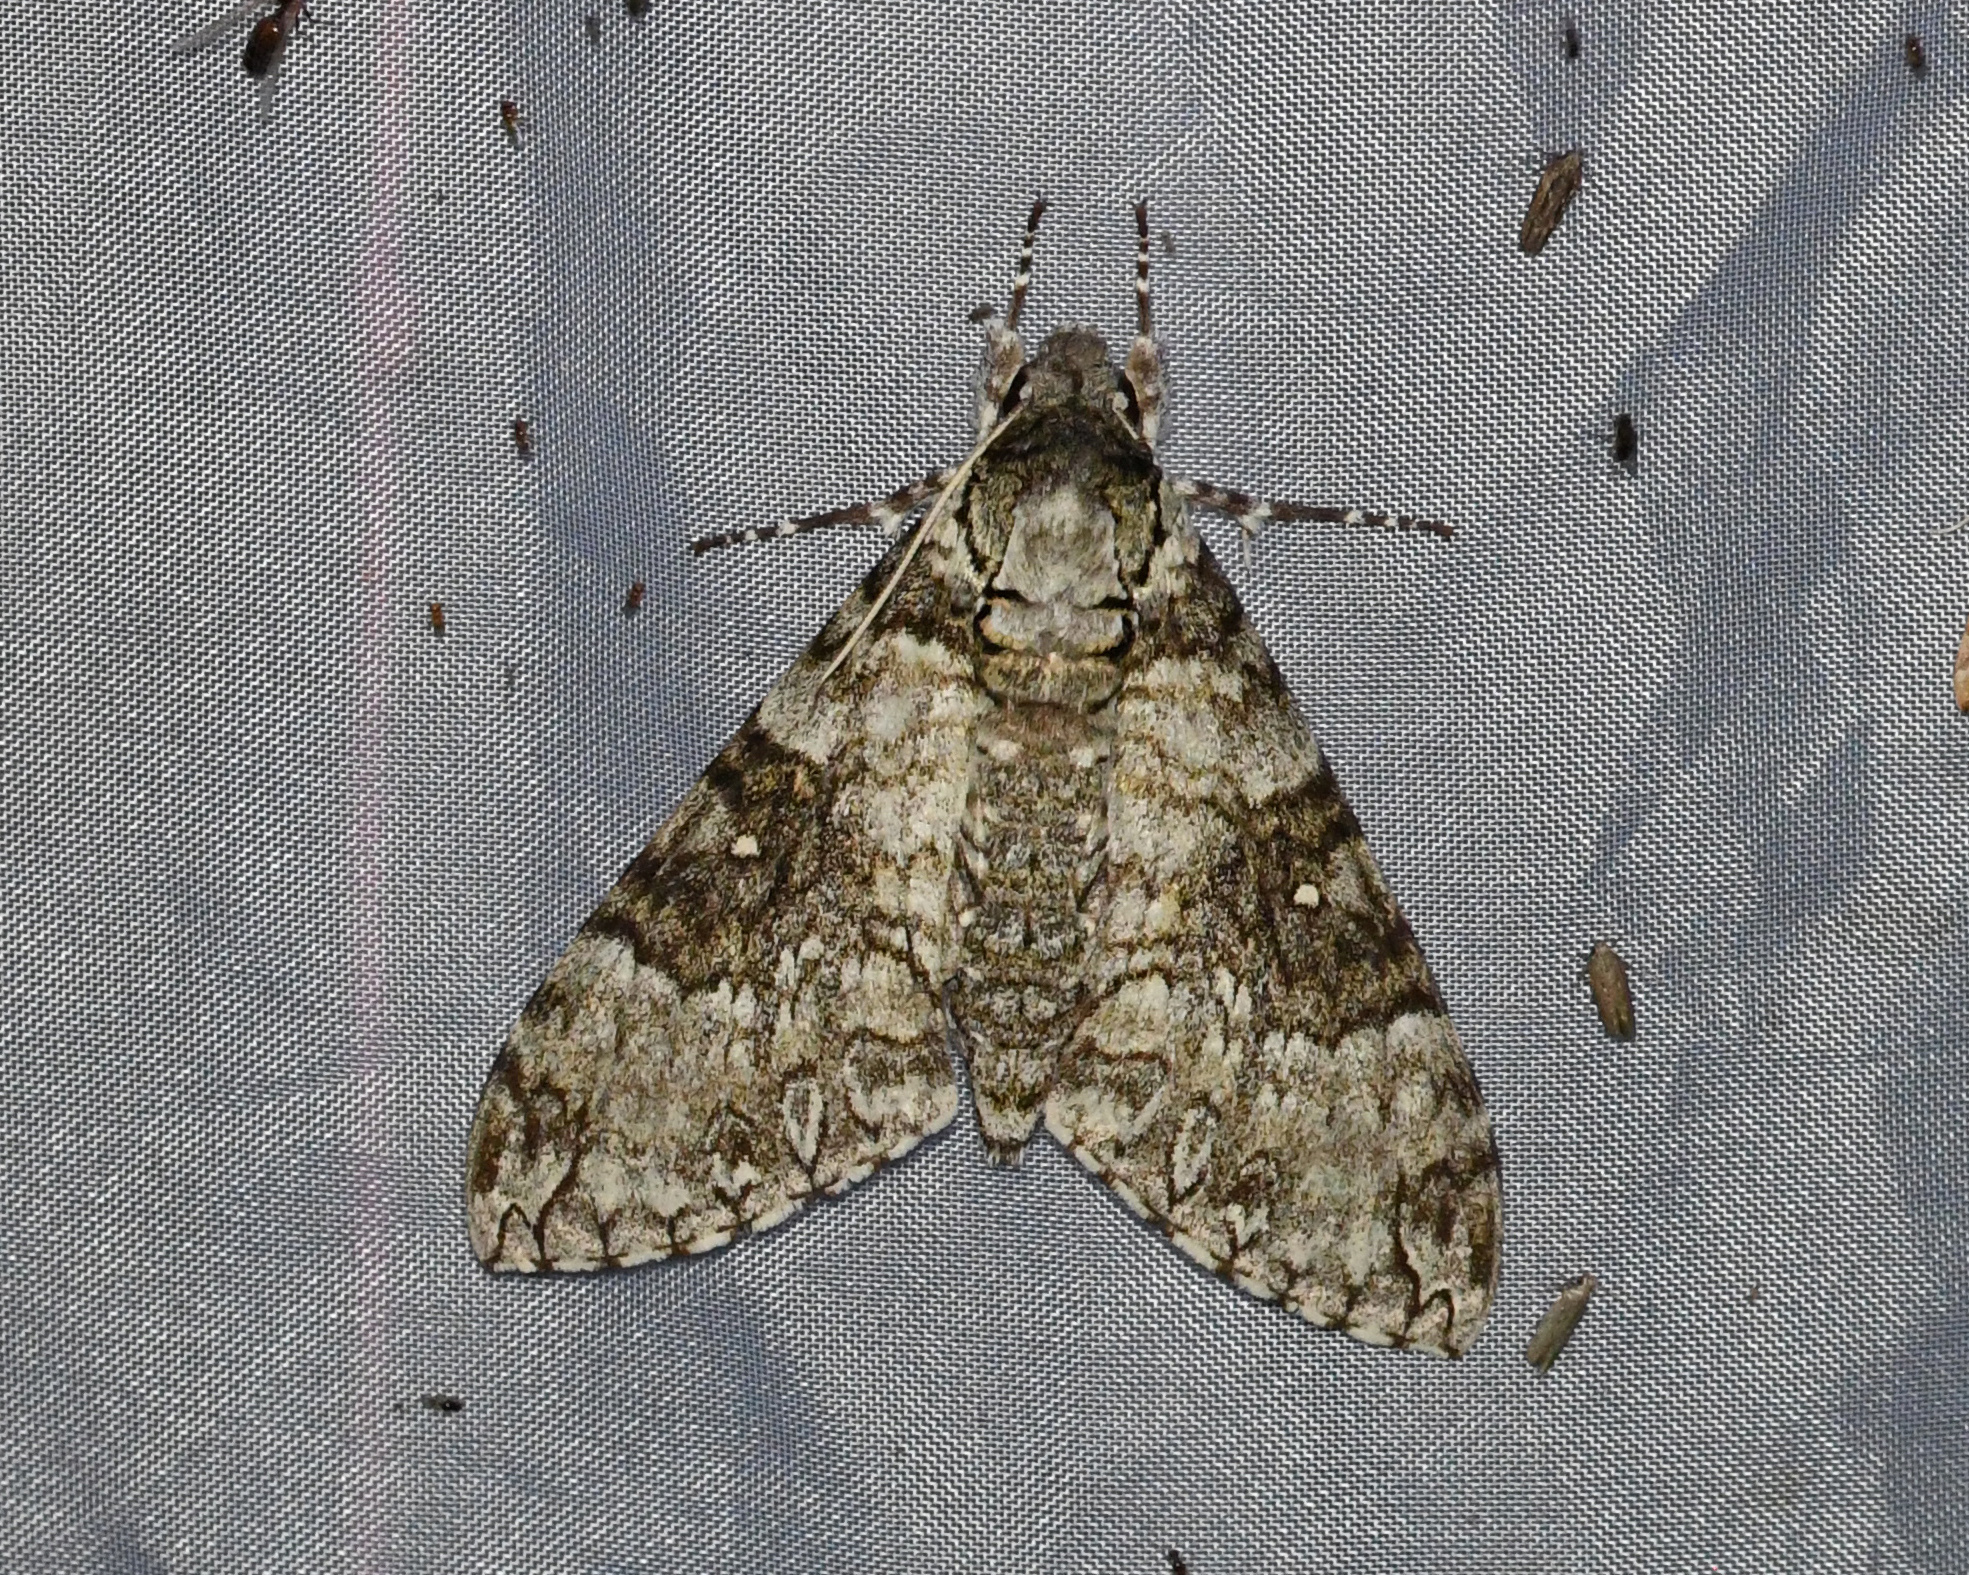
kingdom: Animalia
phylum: Arthropoda
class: Insecta
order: Lepidoptera
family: Sphingidae
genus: Manduca
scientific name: Manduca brontes
